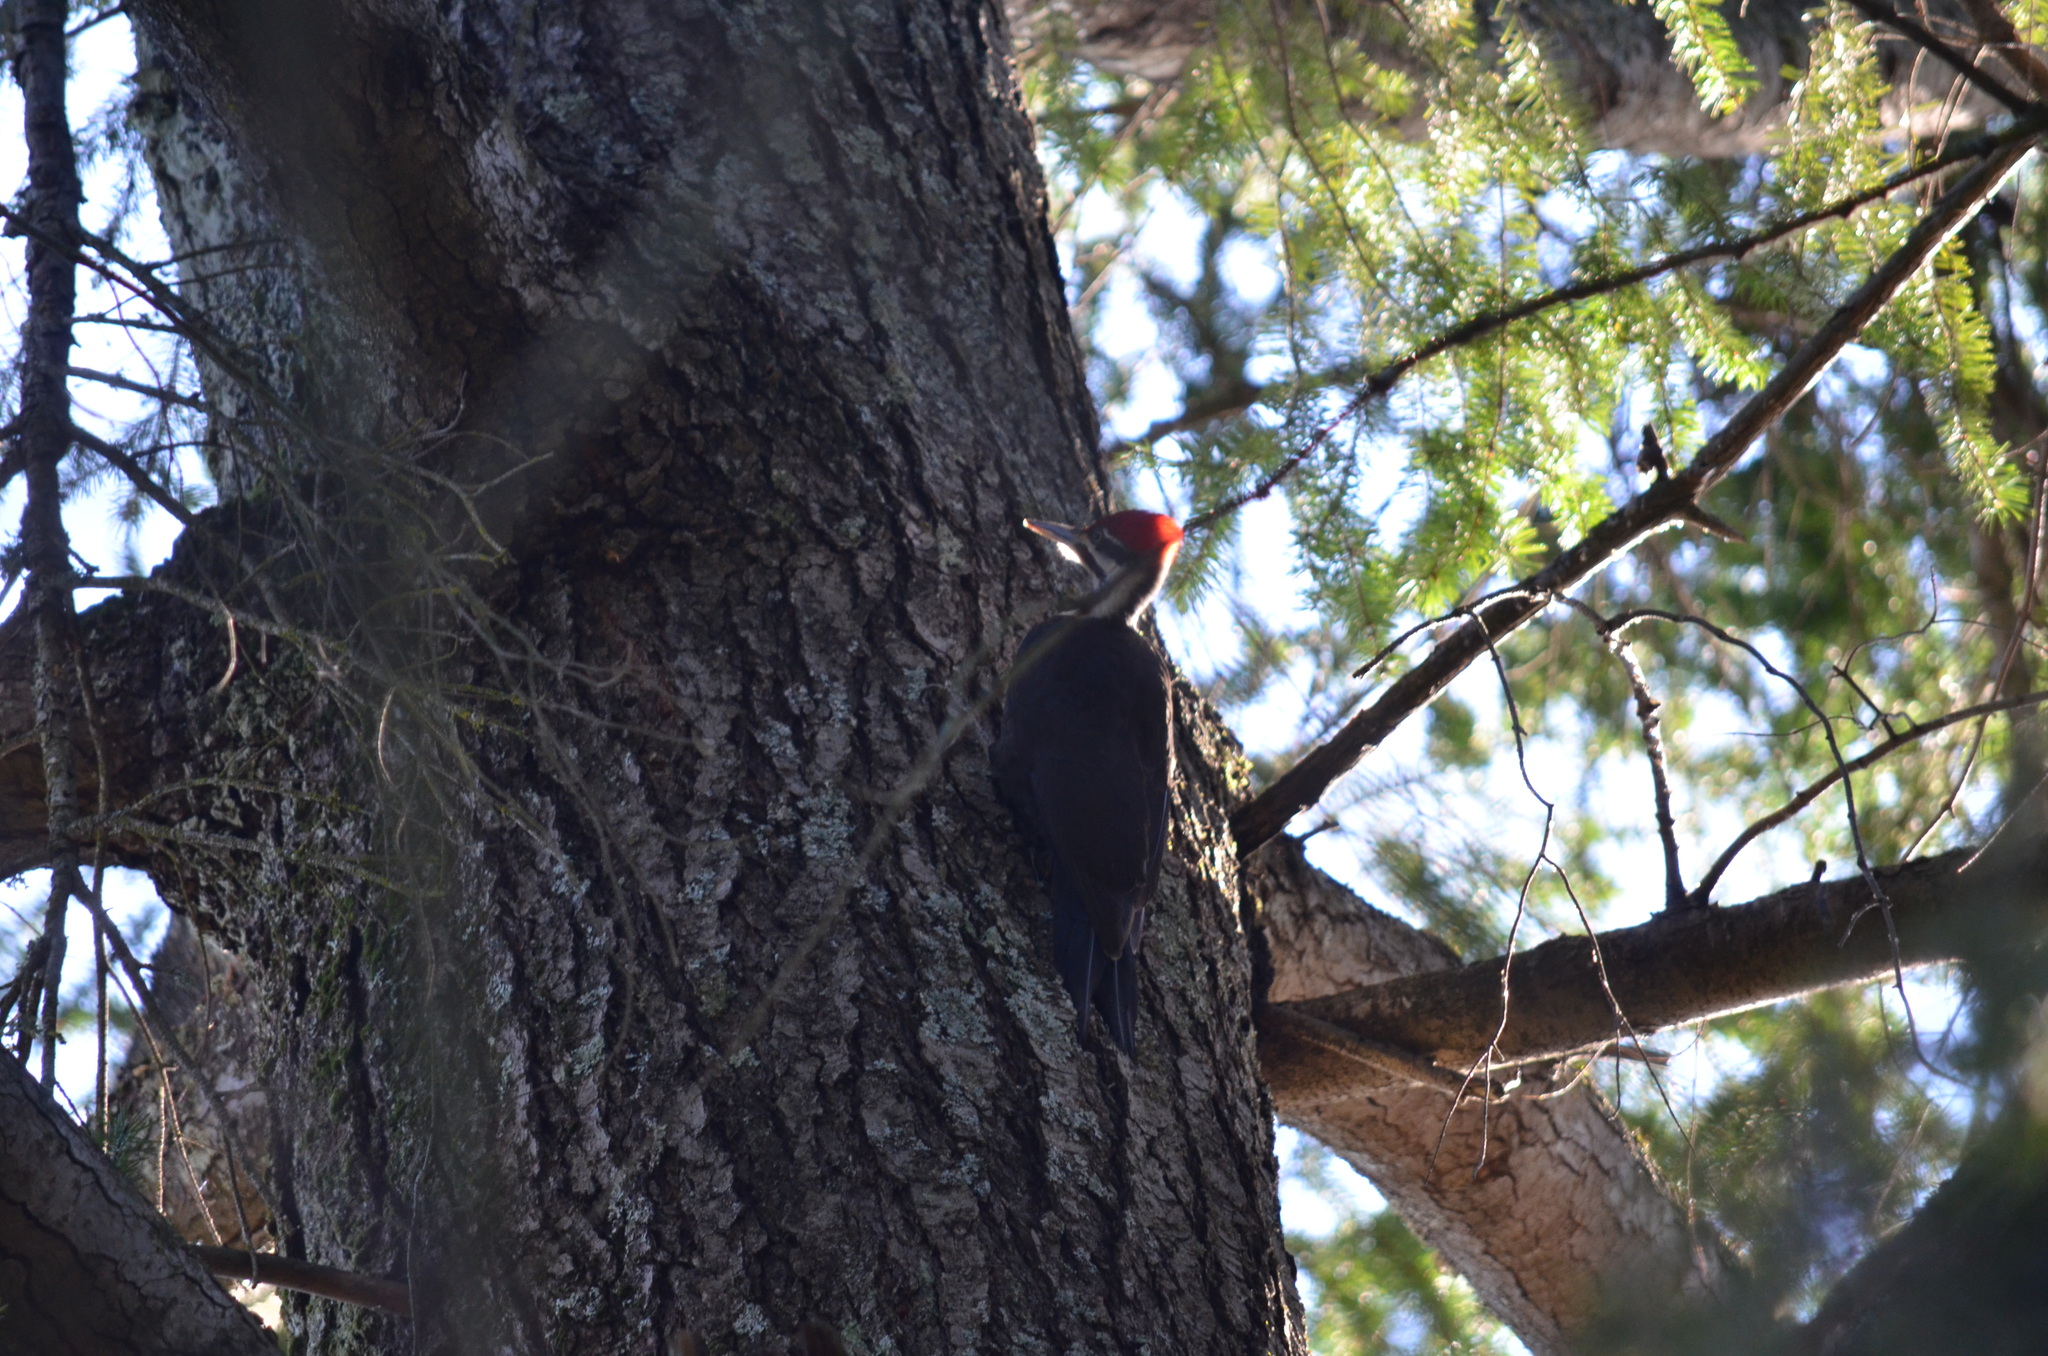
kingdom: Animalia
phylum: Chordata
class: Aves
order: Piciformes
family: Picidae
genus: Dryocopus
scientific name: Dryocopus pileatus
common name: Pileated woodpecker
